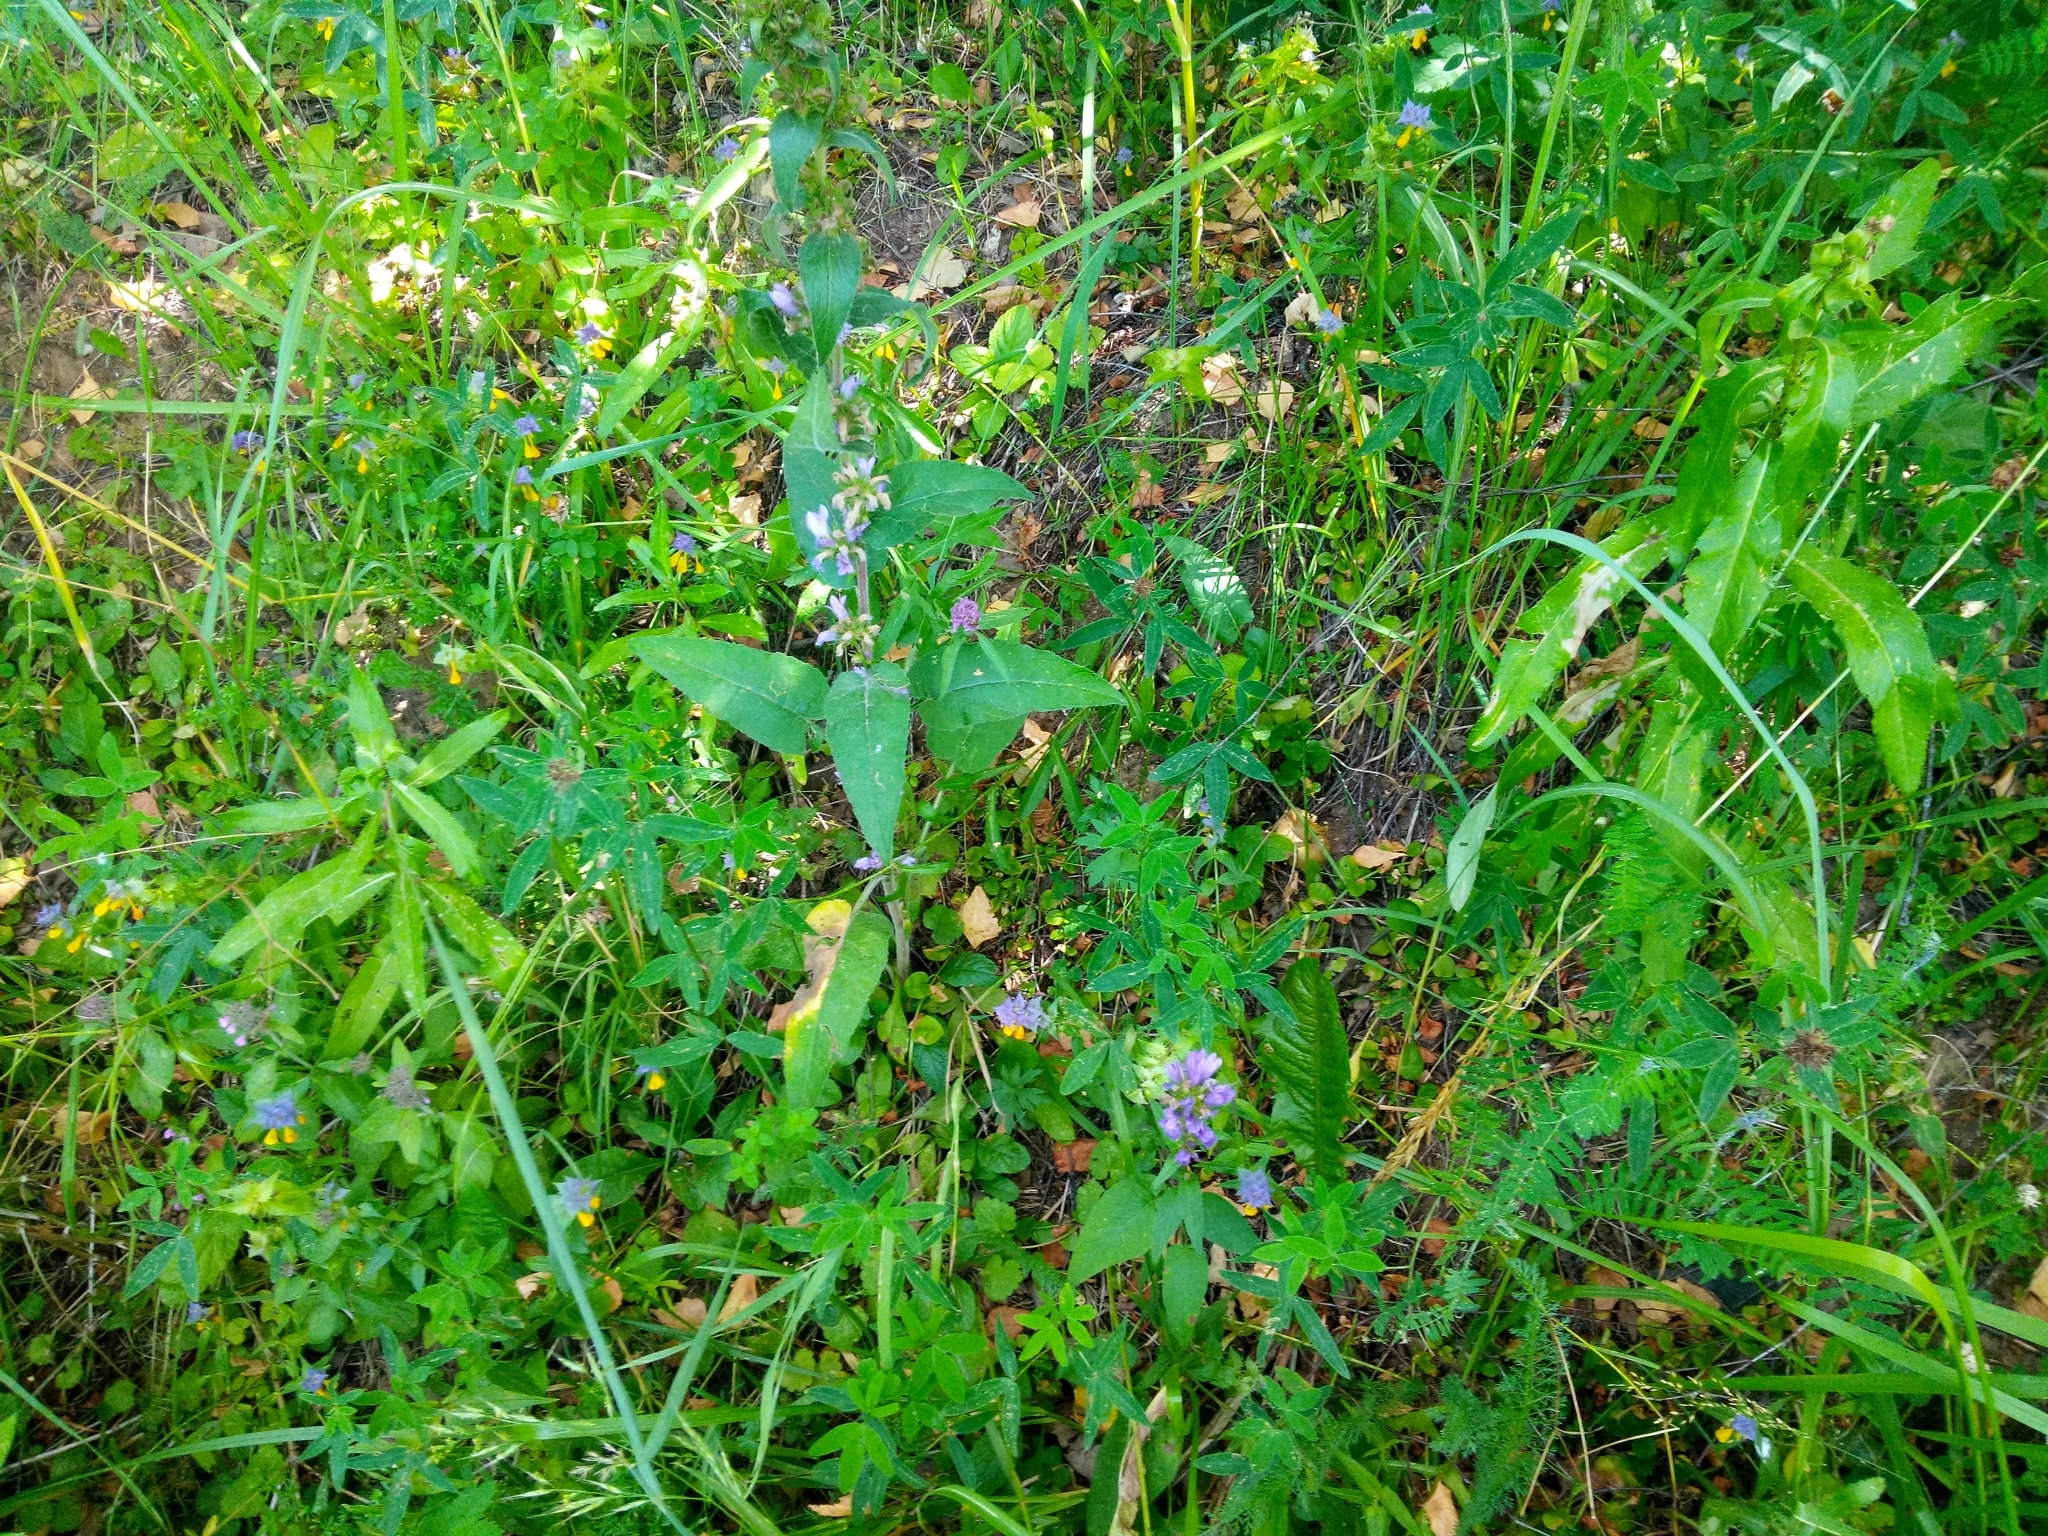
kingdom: Plantae
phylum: Tracheophyta
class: Magnoliopsida
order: Asterales
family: Campanulaceae
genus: Campanula
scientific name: Campanula glomerata
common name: Clustered bellflower
